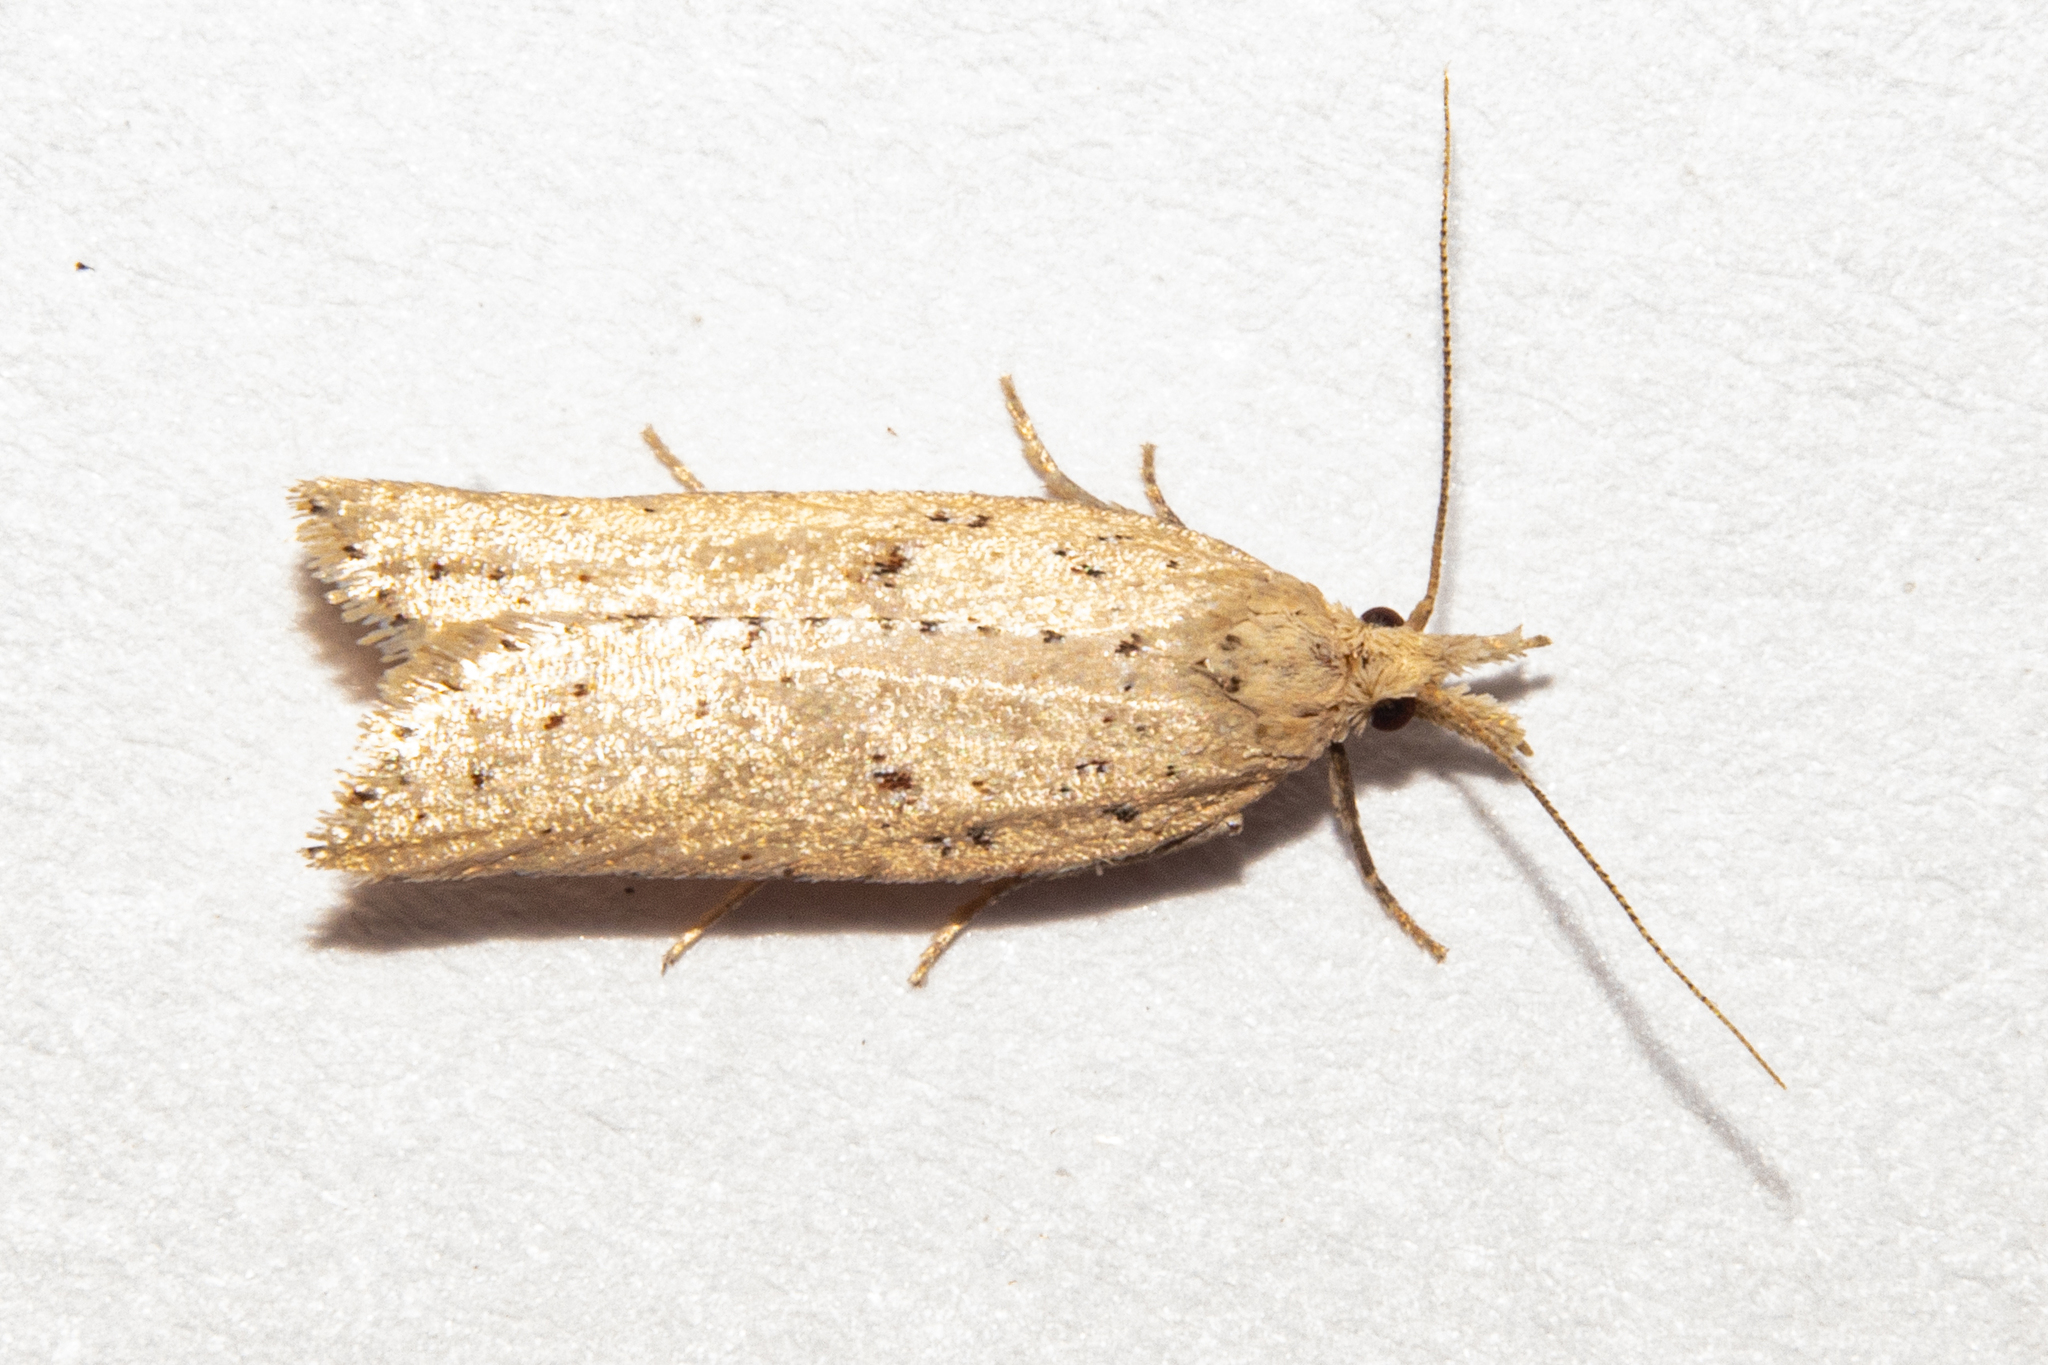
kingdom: Animalia
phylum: Arthropoda
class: Insecta
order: Lepidoptera
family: Tortricidae
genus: Apoctena
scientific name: Apoctena persecta
